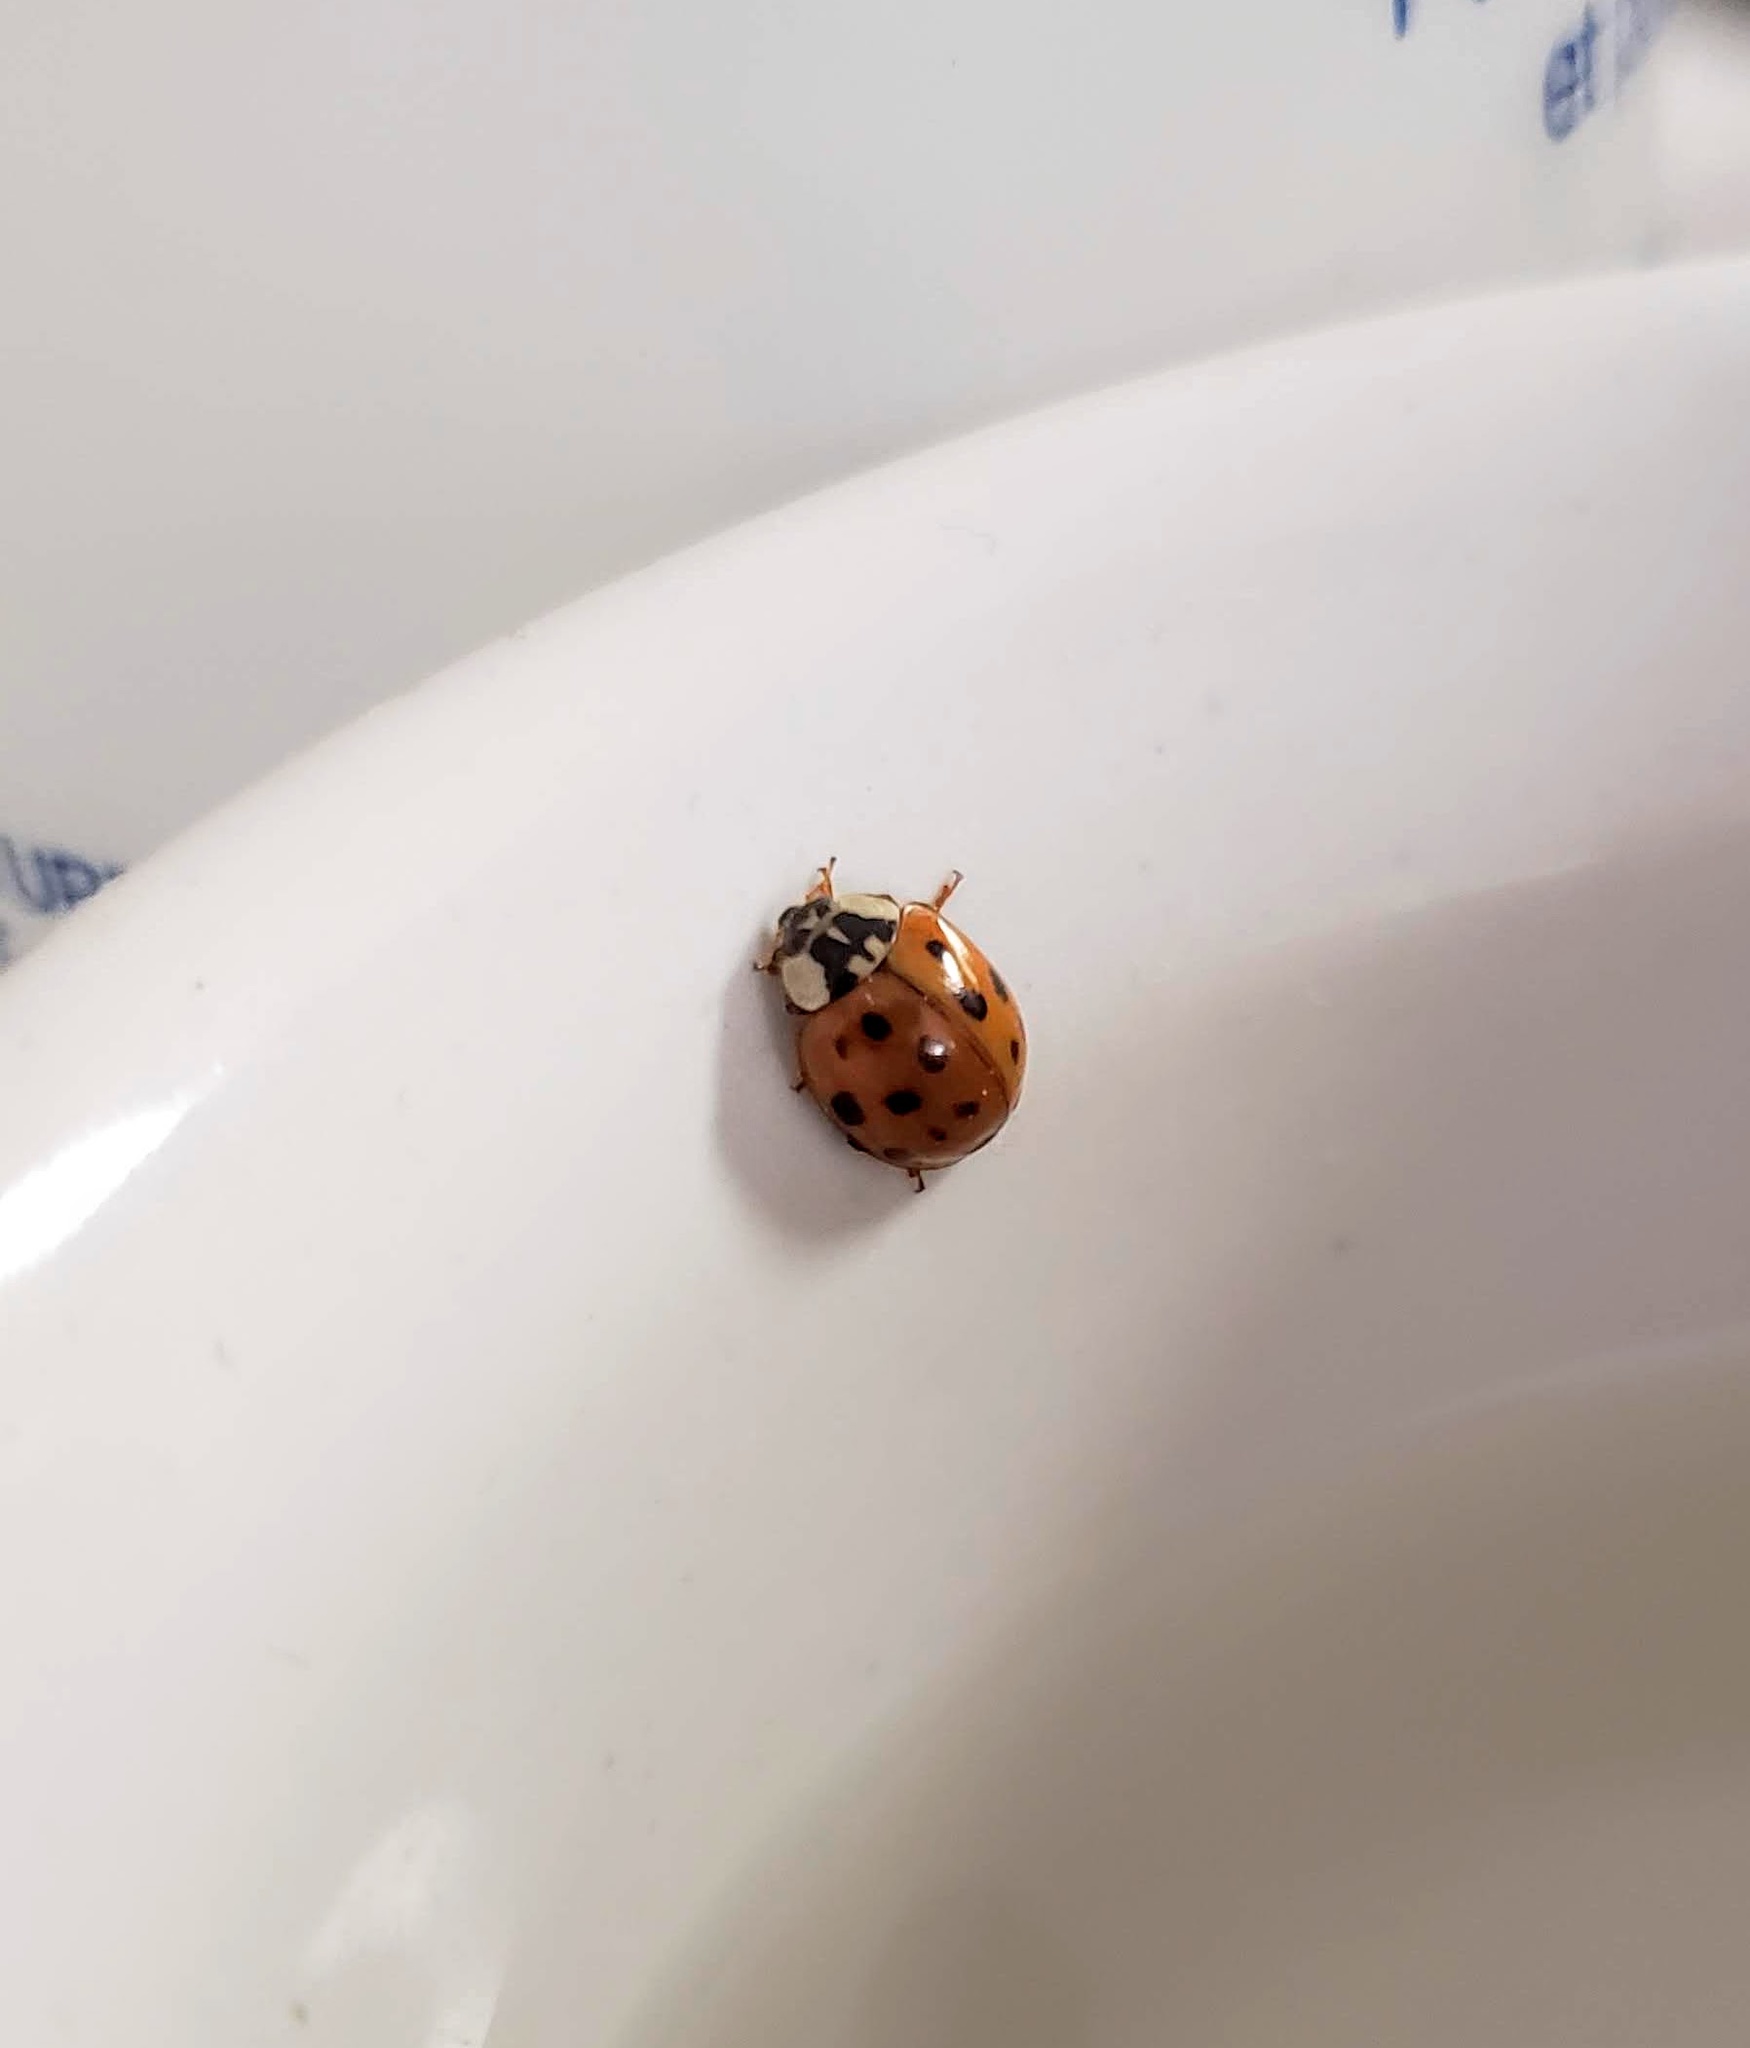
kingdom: Animalia
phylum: Arthropoda
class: Insecta
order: Coleoptera
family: Coccinellidae
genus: Harmonia
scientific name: Harmonia axyridis
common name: Harlequin ladybird
